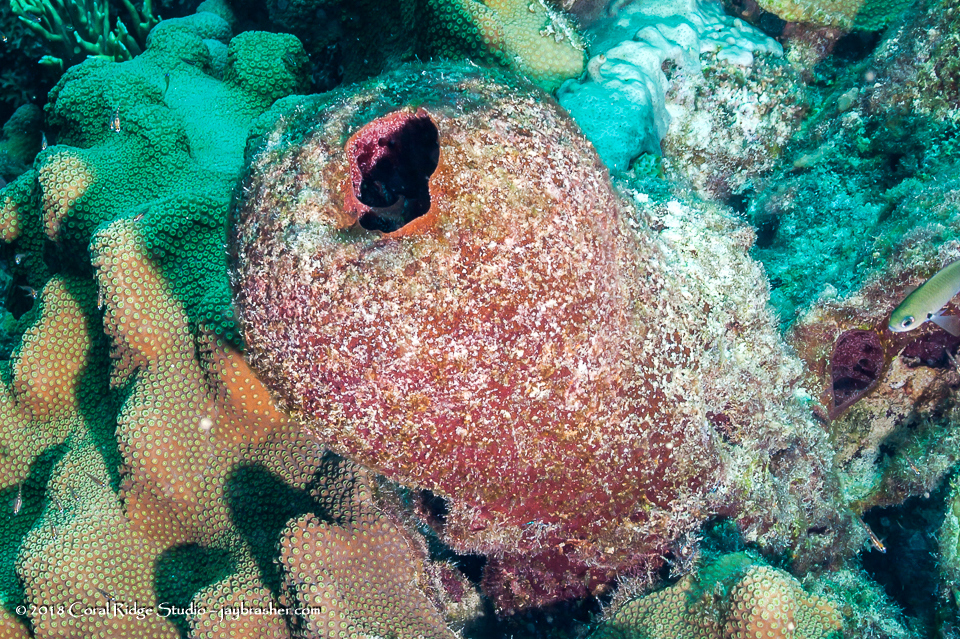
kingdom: Animalia
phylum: Porifera
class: Demospongiae
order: Biemnida
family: Biemnidae
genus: Neofibularia
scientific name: Neofibularia nolitangere
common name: Do-not-touch-me sponge
